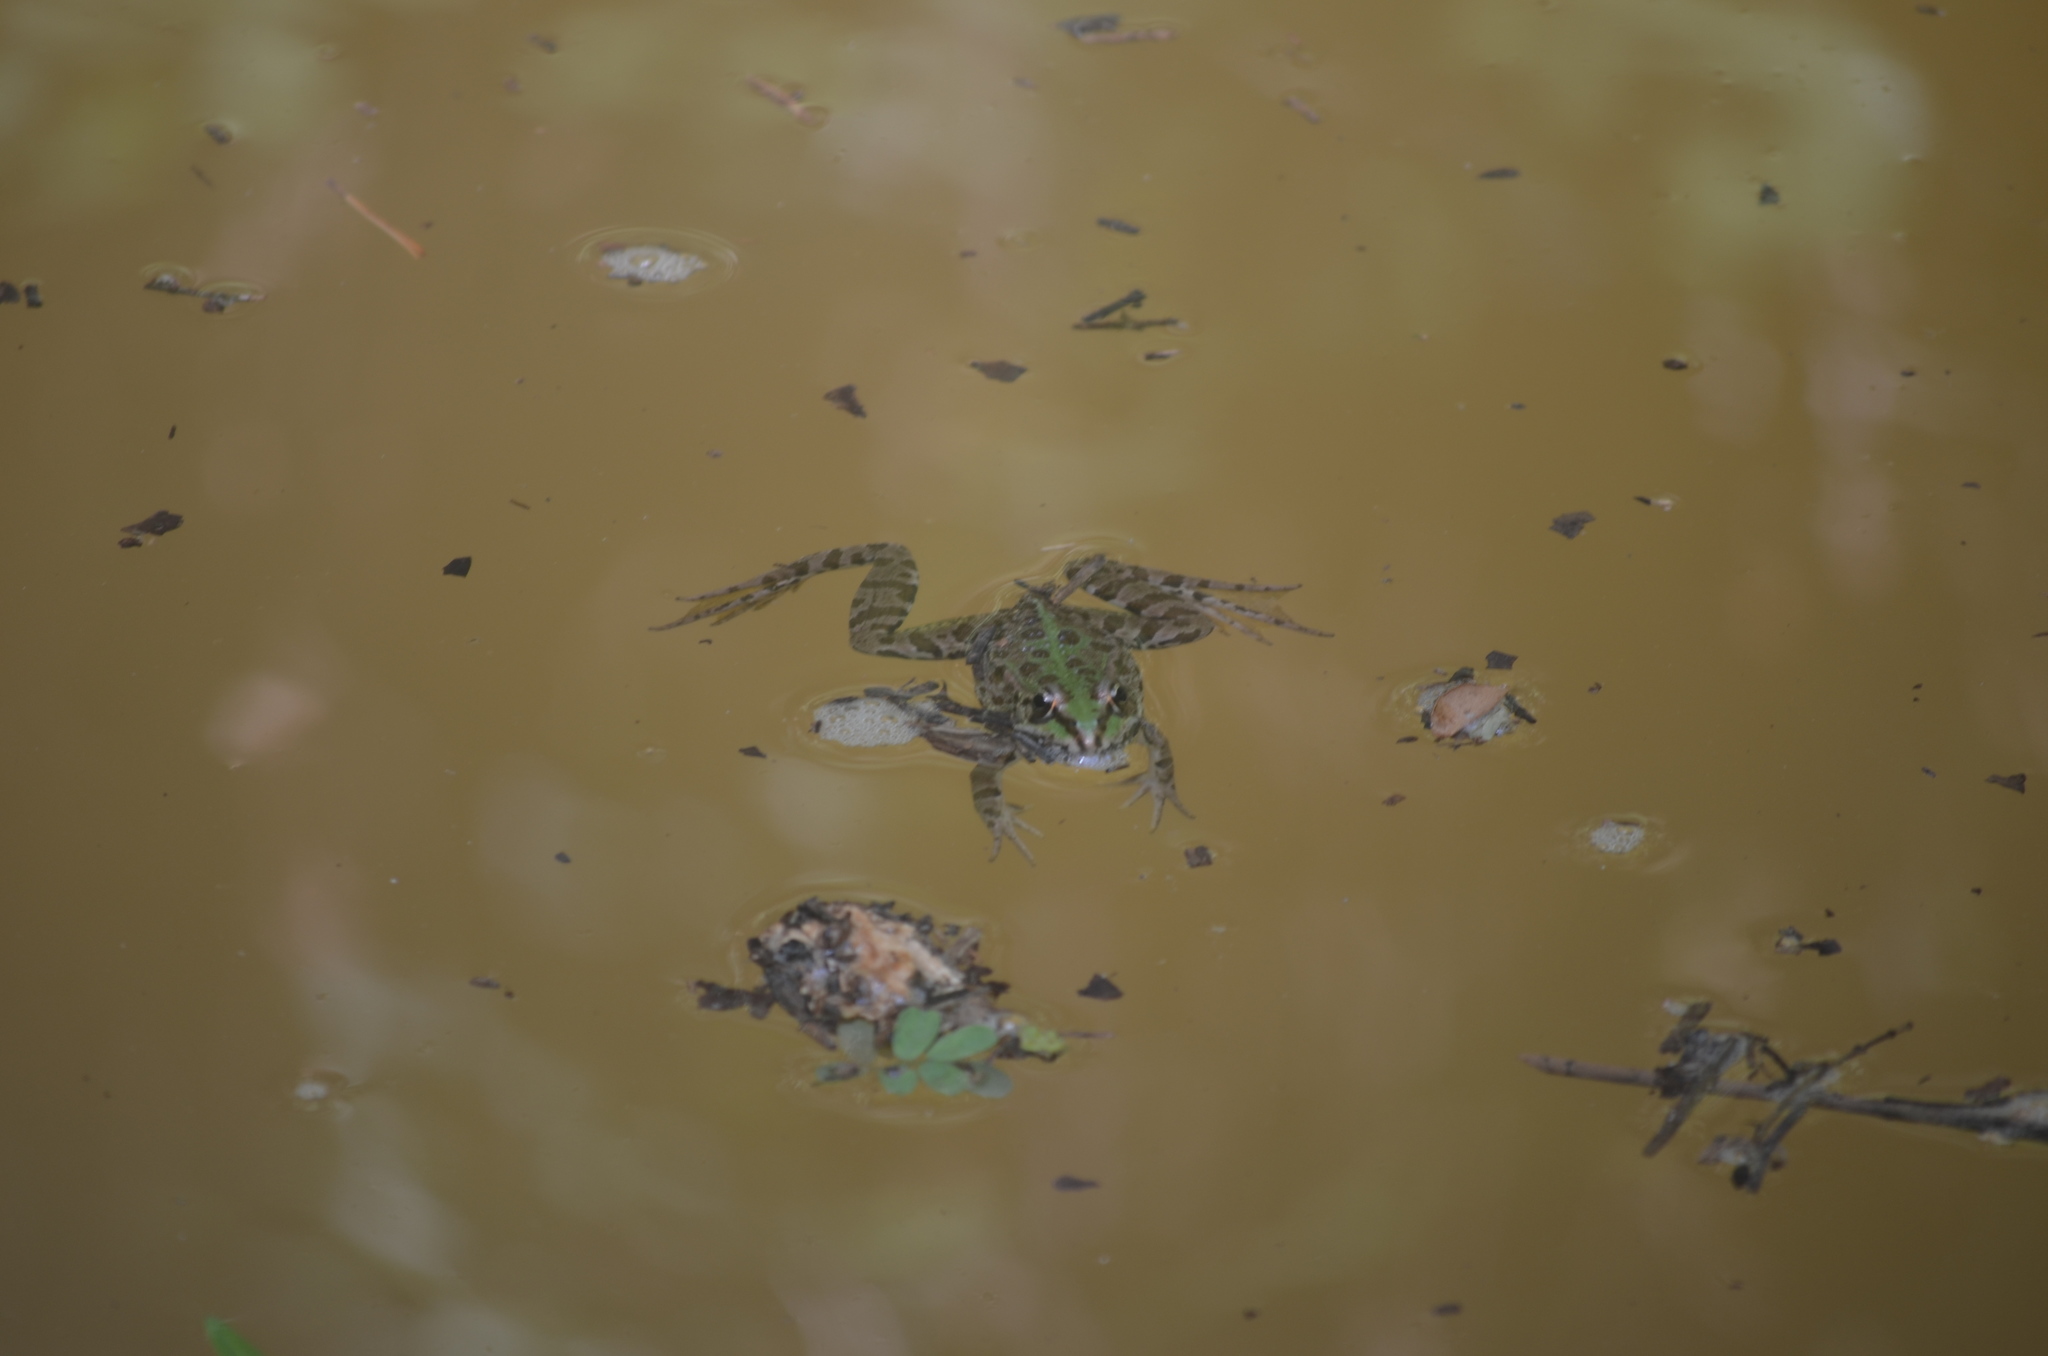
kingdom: Animalia
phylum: Chordata
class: Amphibia
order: Anura
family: Ranidae
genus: Pelophylax
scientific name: Pelophylax perezi
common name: Perez's frog
